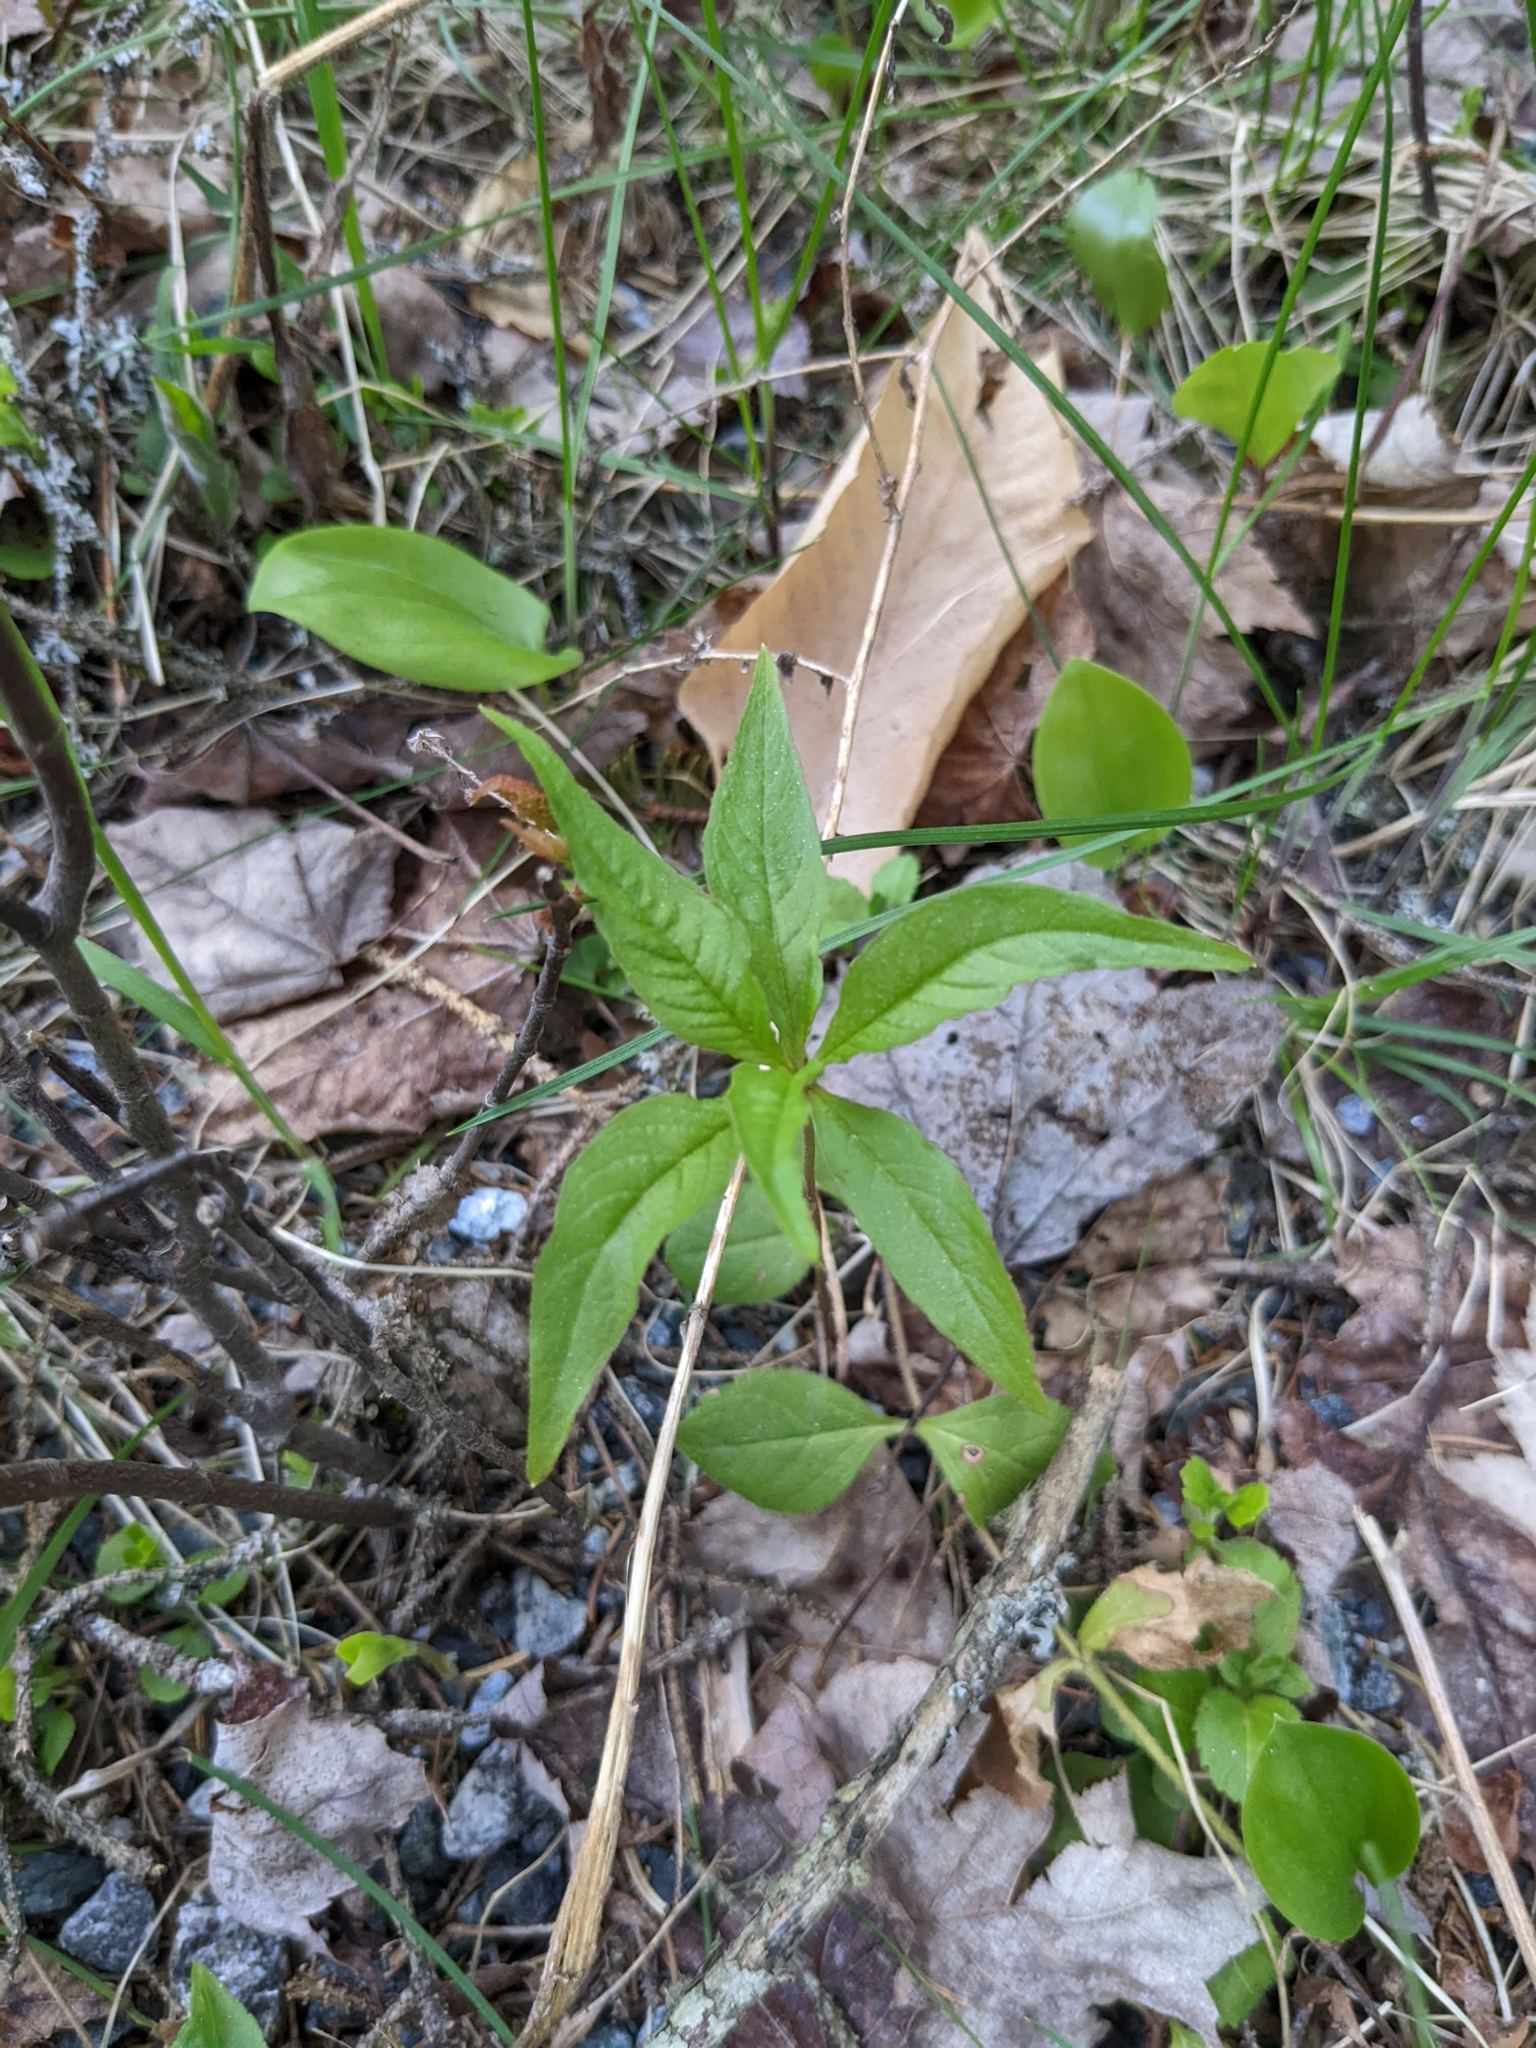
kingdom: Plantae
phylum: Tracheophyta
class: Magnoliopsida
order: Ericales
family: Primulaceae
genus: Lysimachia
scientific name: Lysimachia borealis
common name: American starflower
